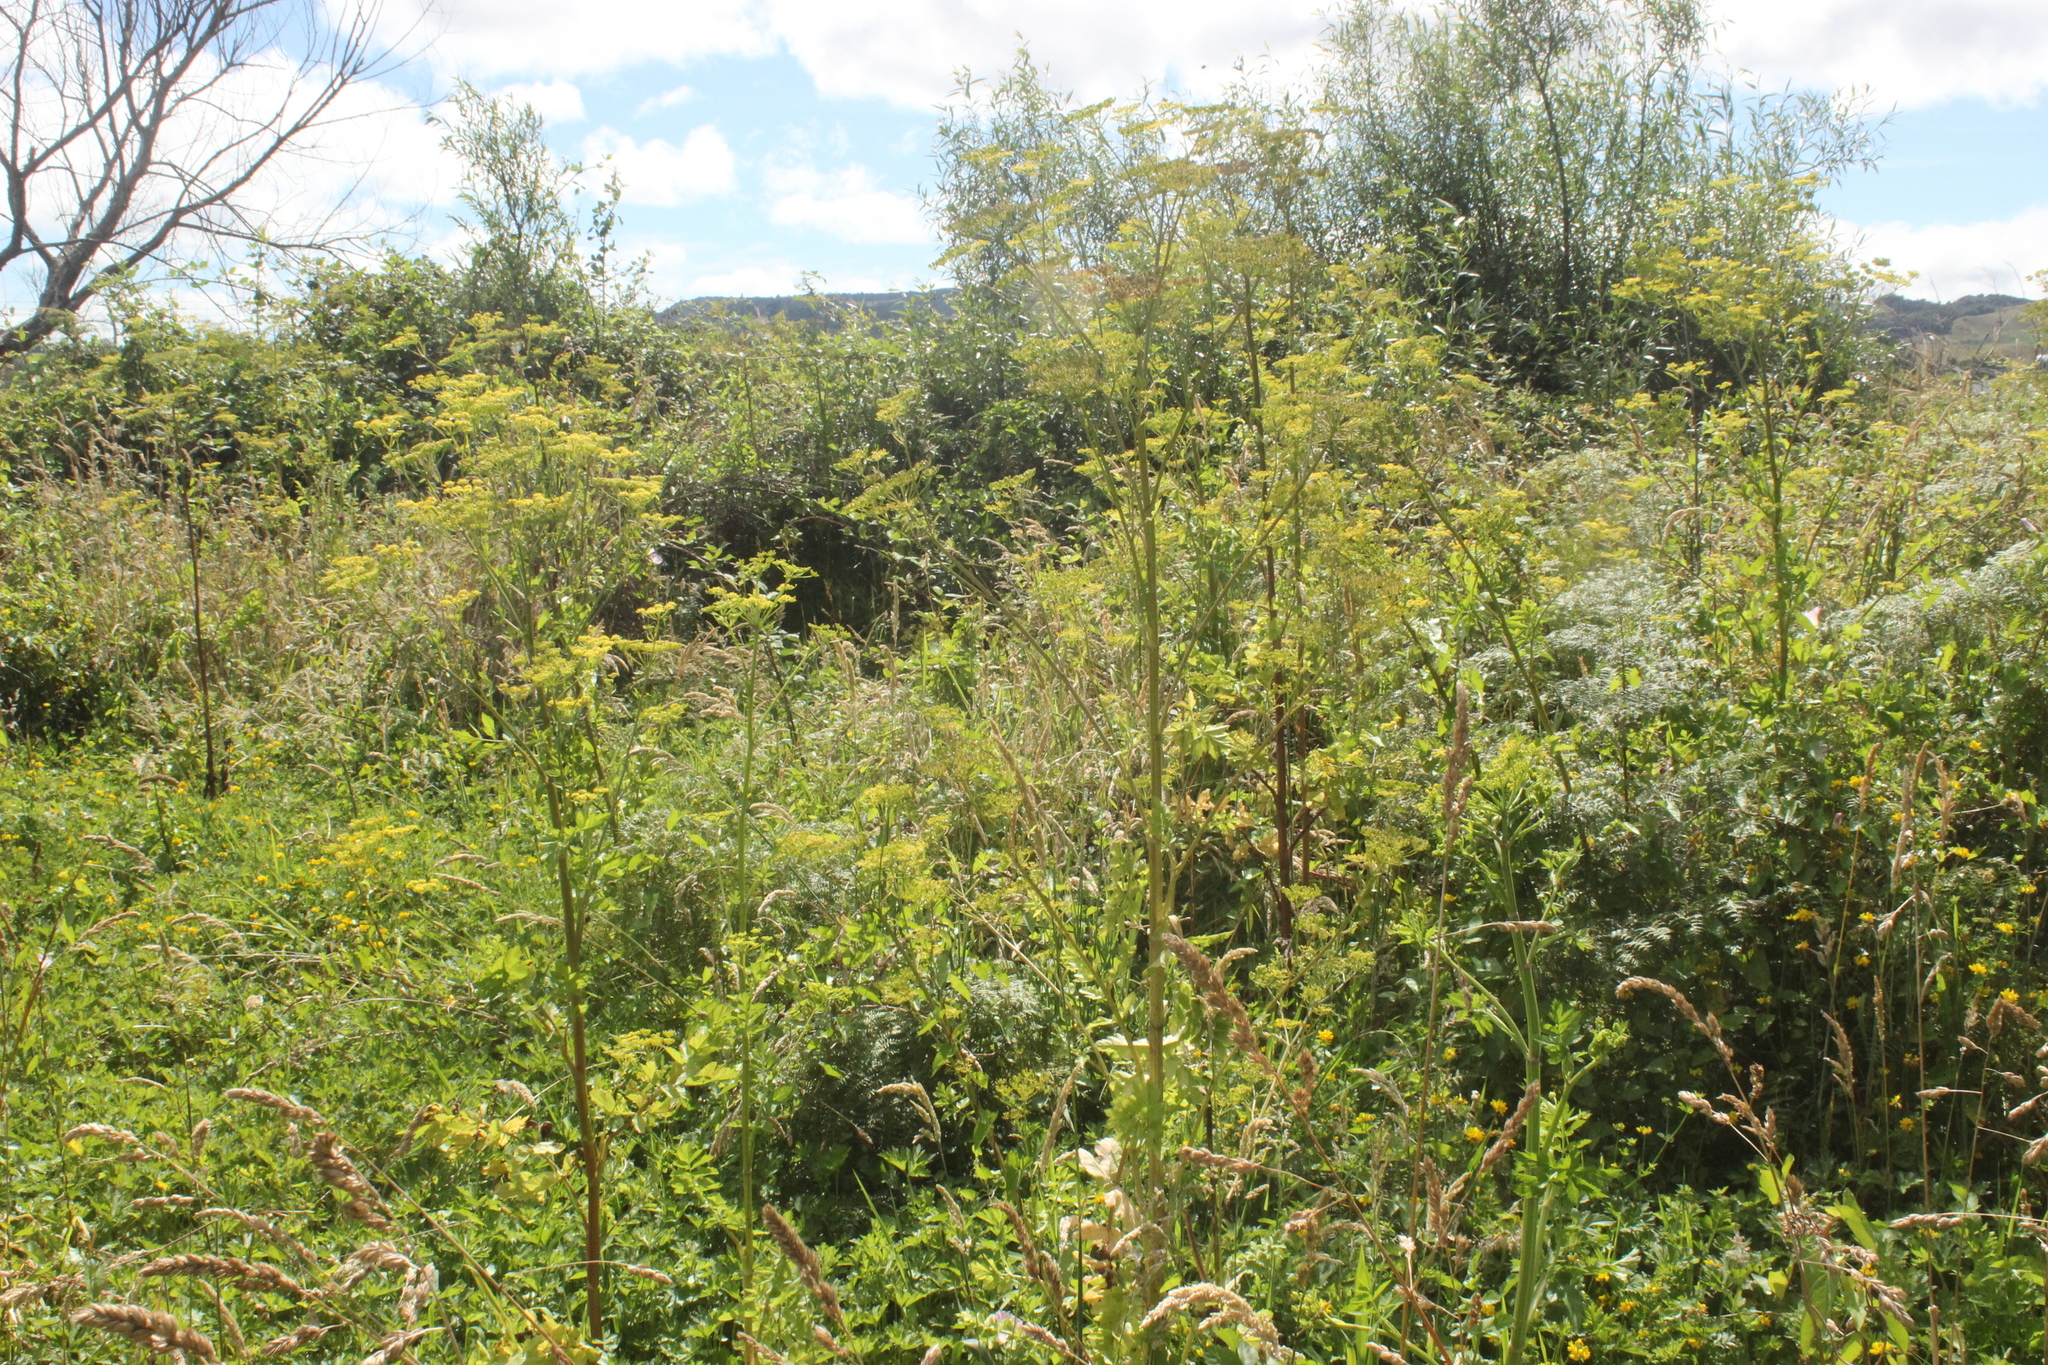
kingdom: Plantae
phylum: Tracheophyta
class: Magnoliopsida
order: Apiales
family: Apiaceae
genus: Pastinaca
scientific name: Pastinaca sativa
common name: Wild parsnip
